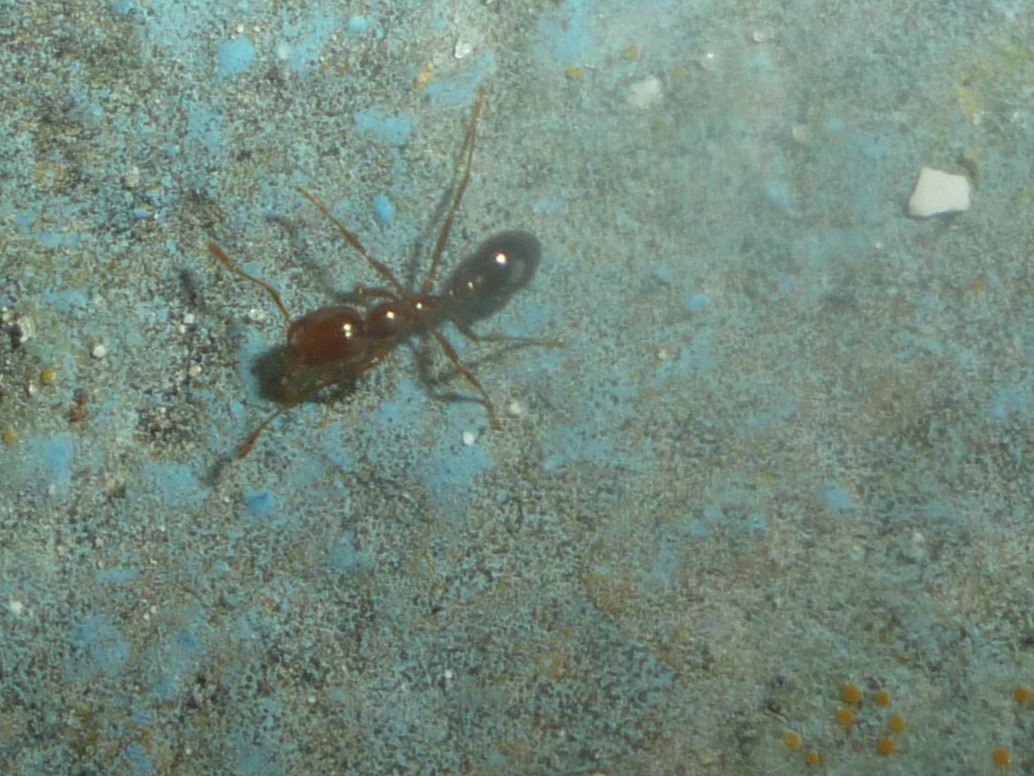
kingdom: Animalia
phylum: Arthropoda
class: Insecta
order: Hymenoptera
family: Formicidae
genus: Solenopsis
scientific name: Solenopsis invicta
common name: Red imported fire ant
